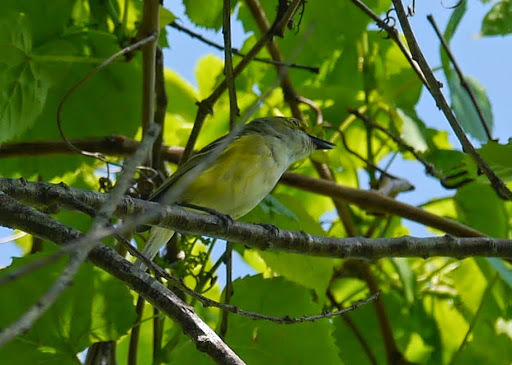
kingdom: Animalia
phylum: Chordata
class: Aves
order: Passeriformes
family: Vireonidae
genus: Vireo
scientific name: Vireo griseus
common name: White-eyed vireo
